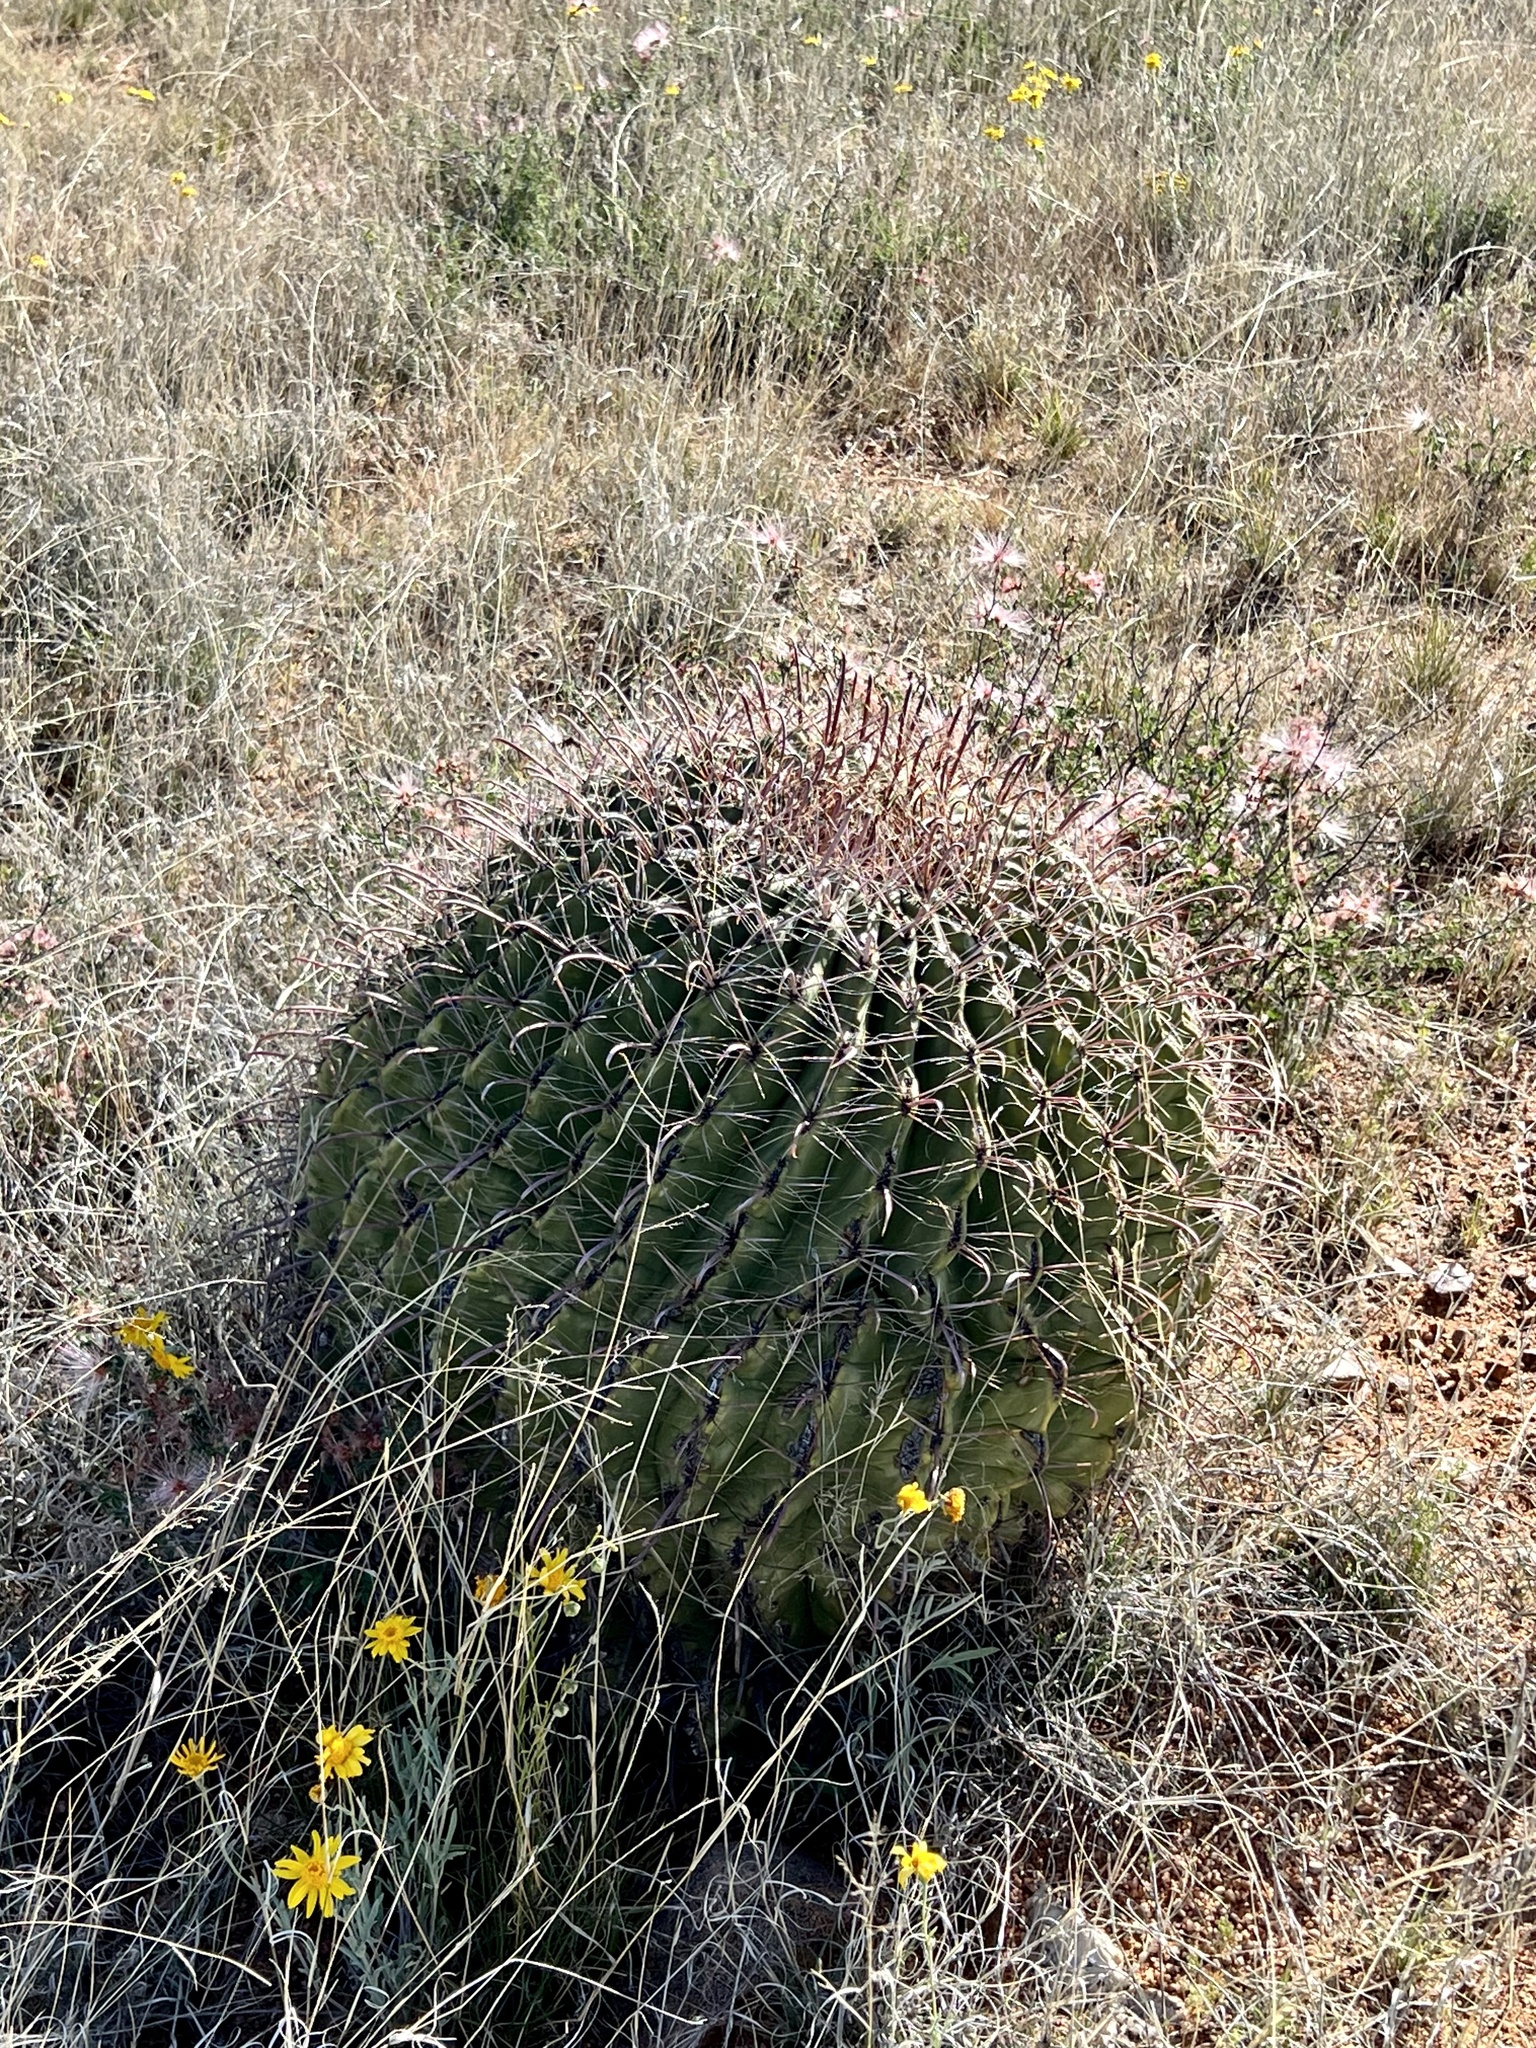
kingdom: Plantae
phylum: Tracheophyta
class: Magnoliopsida
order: Caryophyllales
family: Cactaceae
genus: Ferocactus
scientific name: Ferocactus wislizeni
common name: Candy barrel cactus
